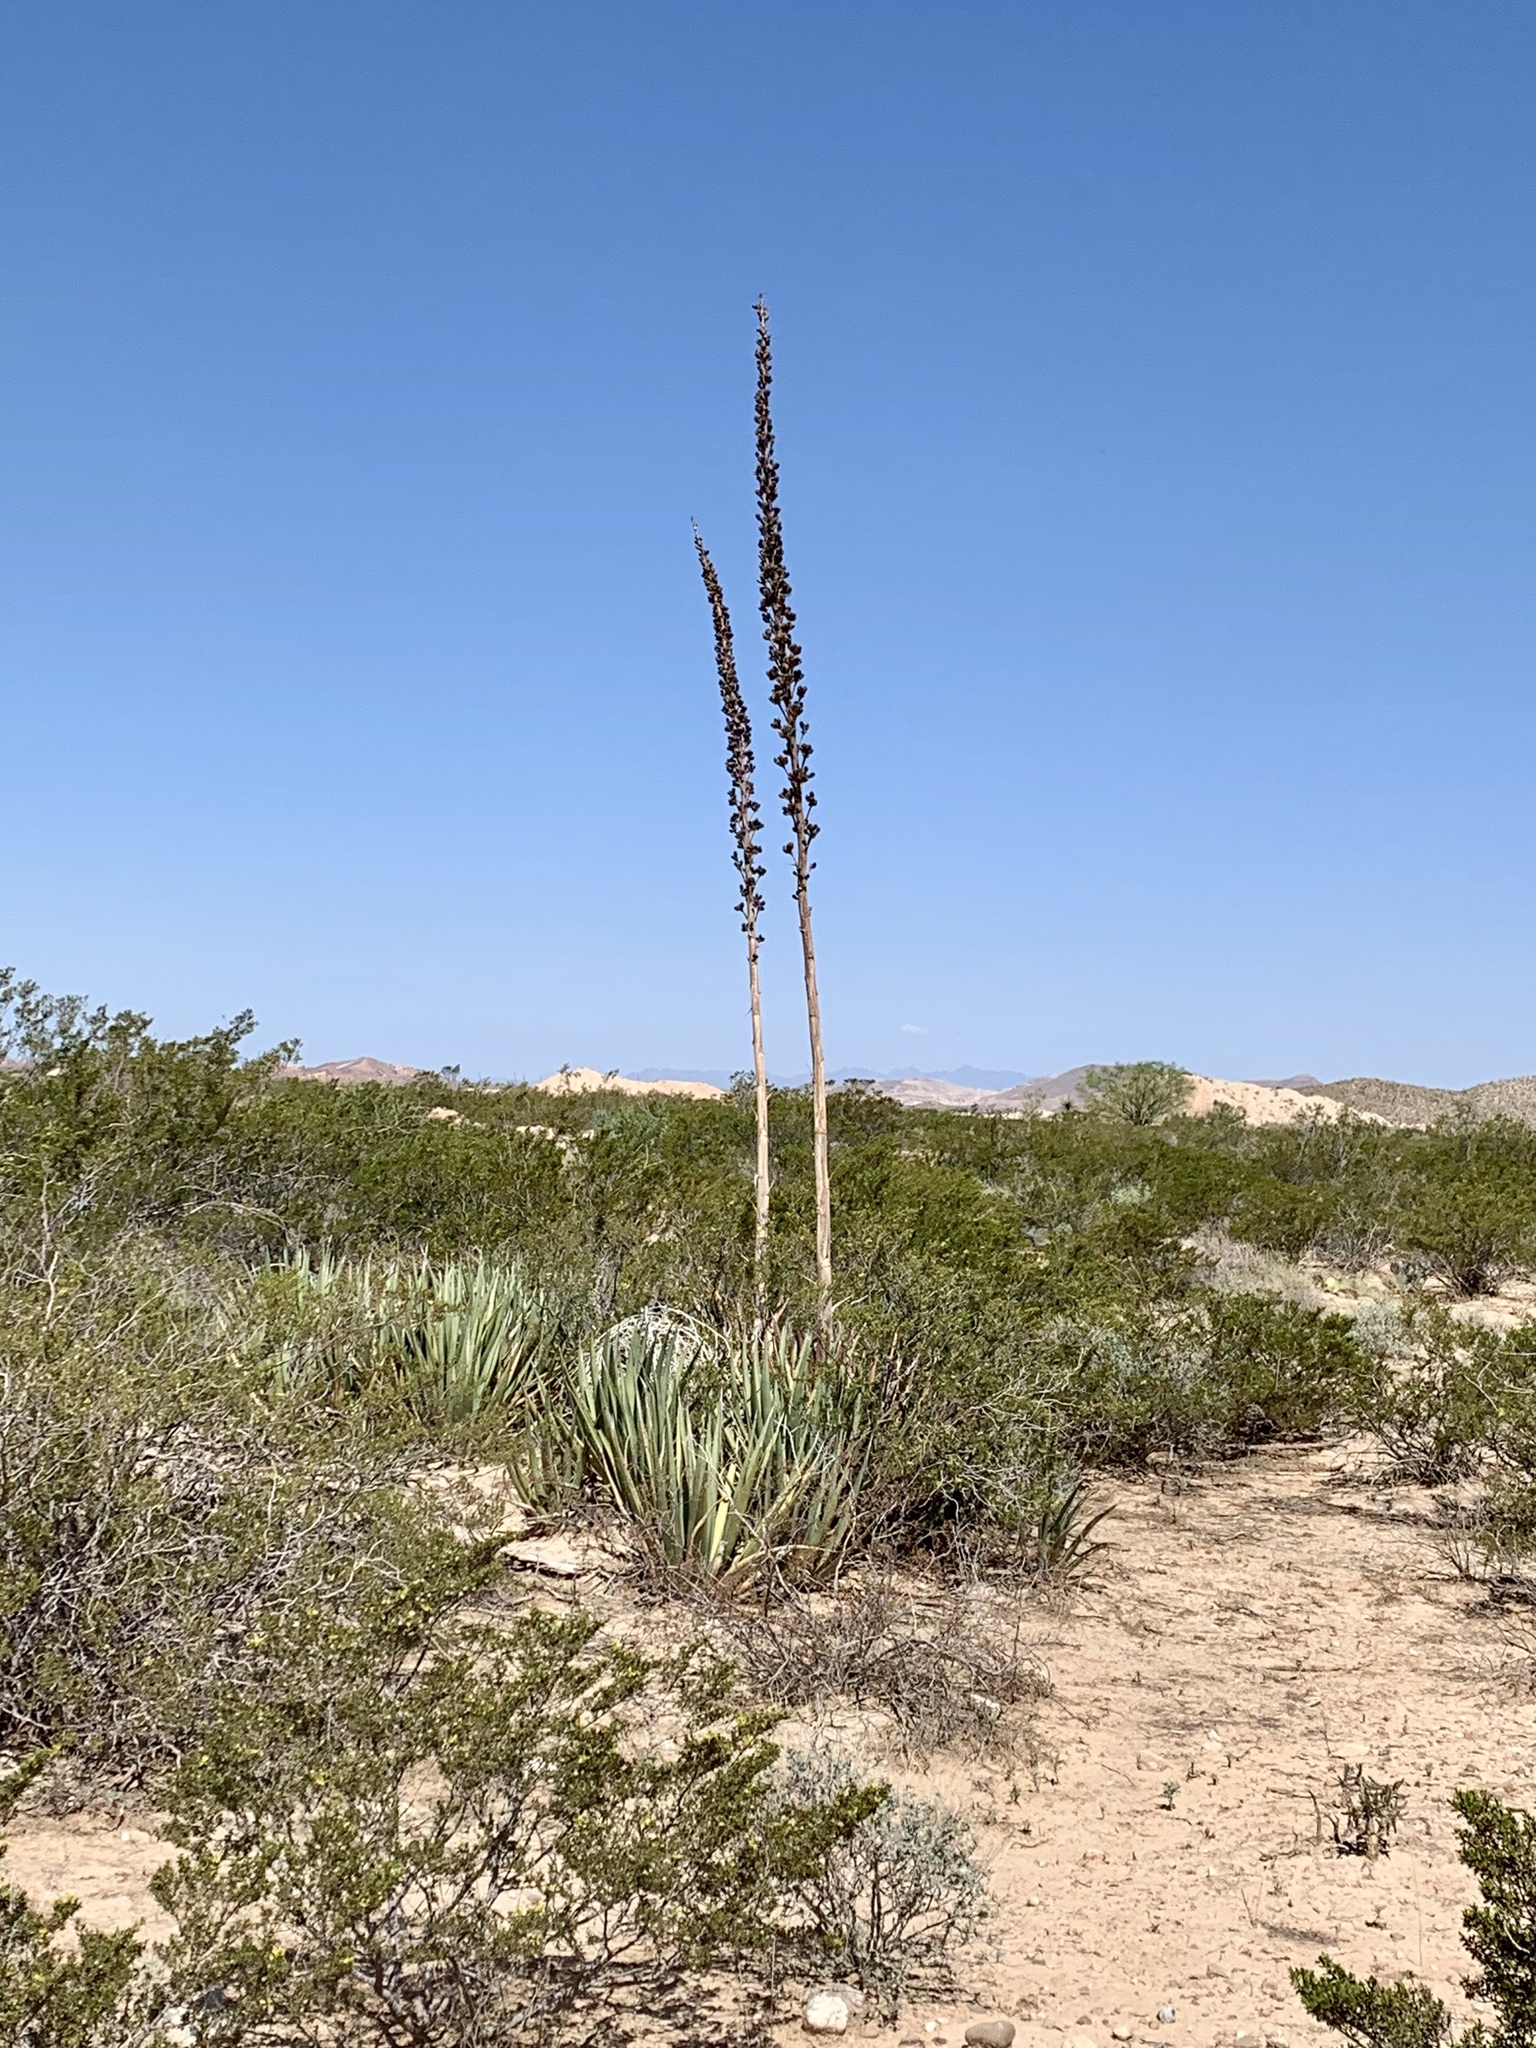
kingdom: Plantae
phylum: Tracheophyta
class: Liliopsida
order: Asparagales
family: Asparagaceae
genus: Agave
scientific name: Agave lechuguilla
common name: Lecheguilla agave
